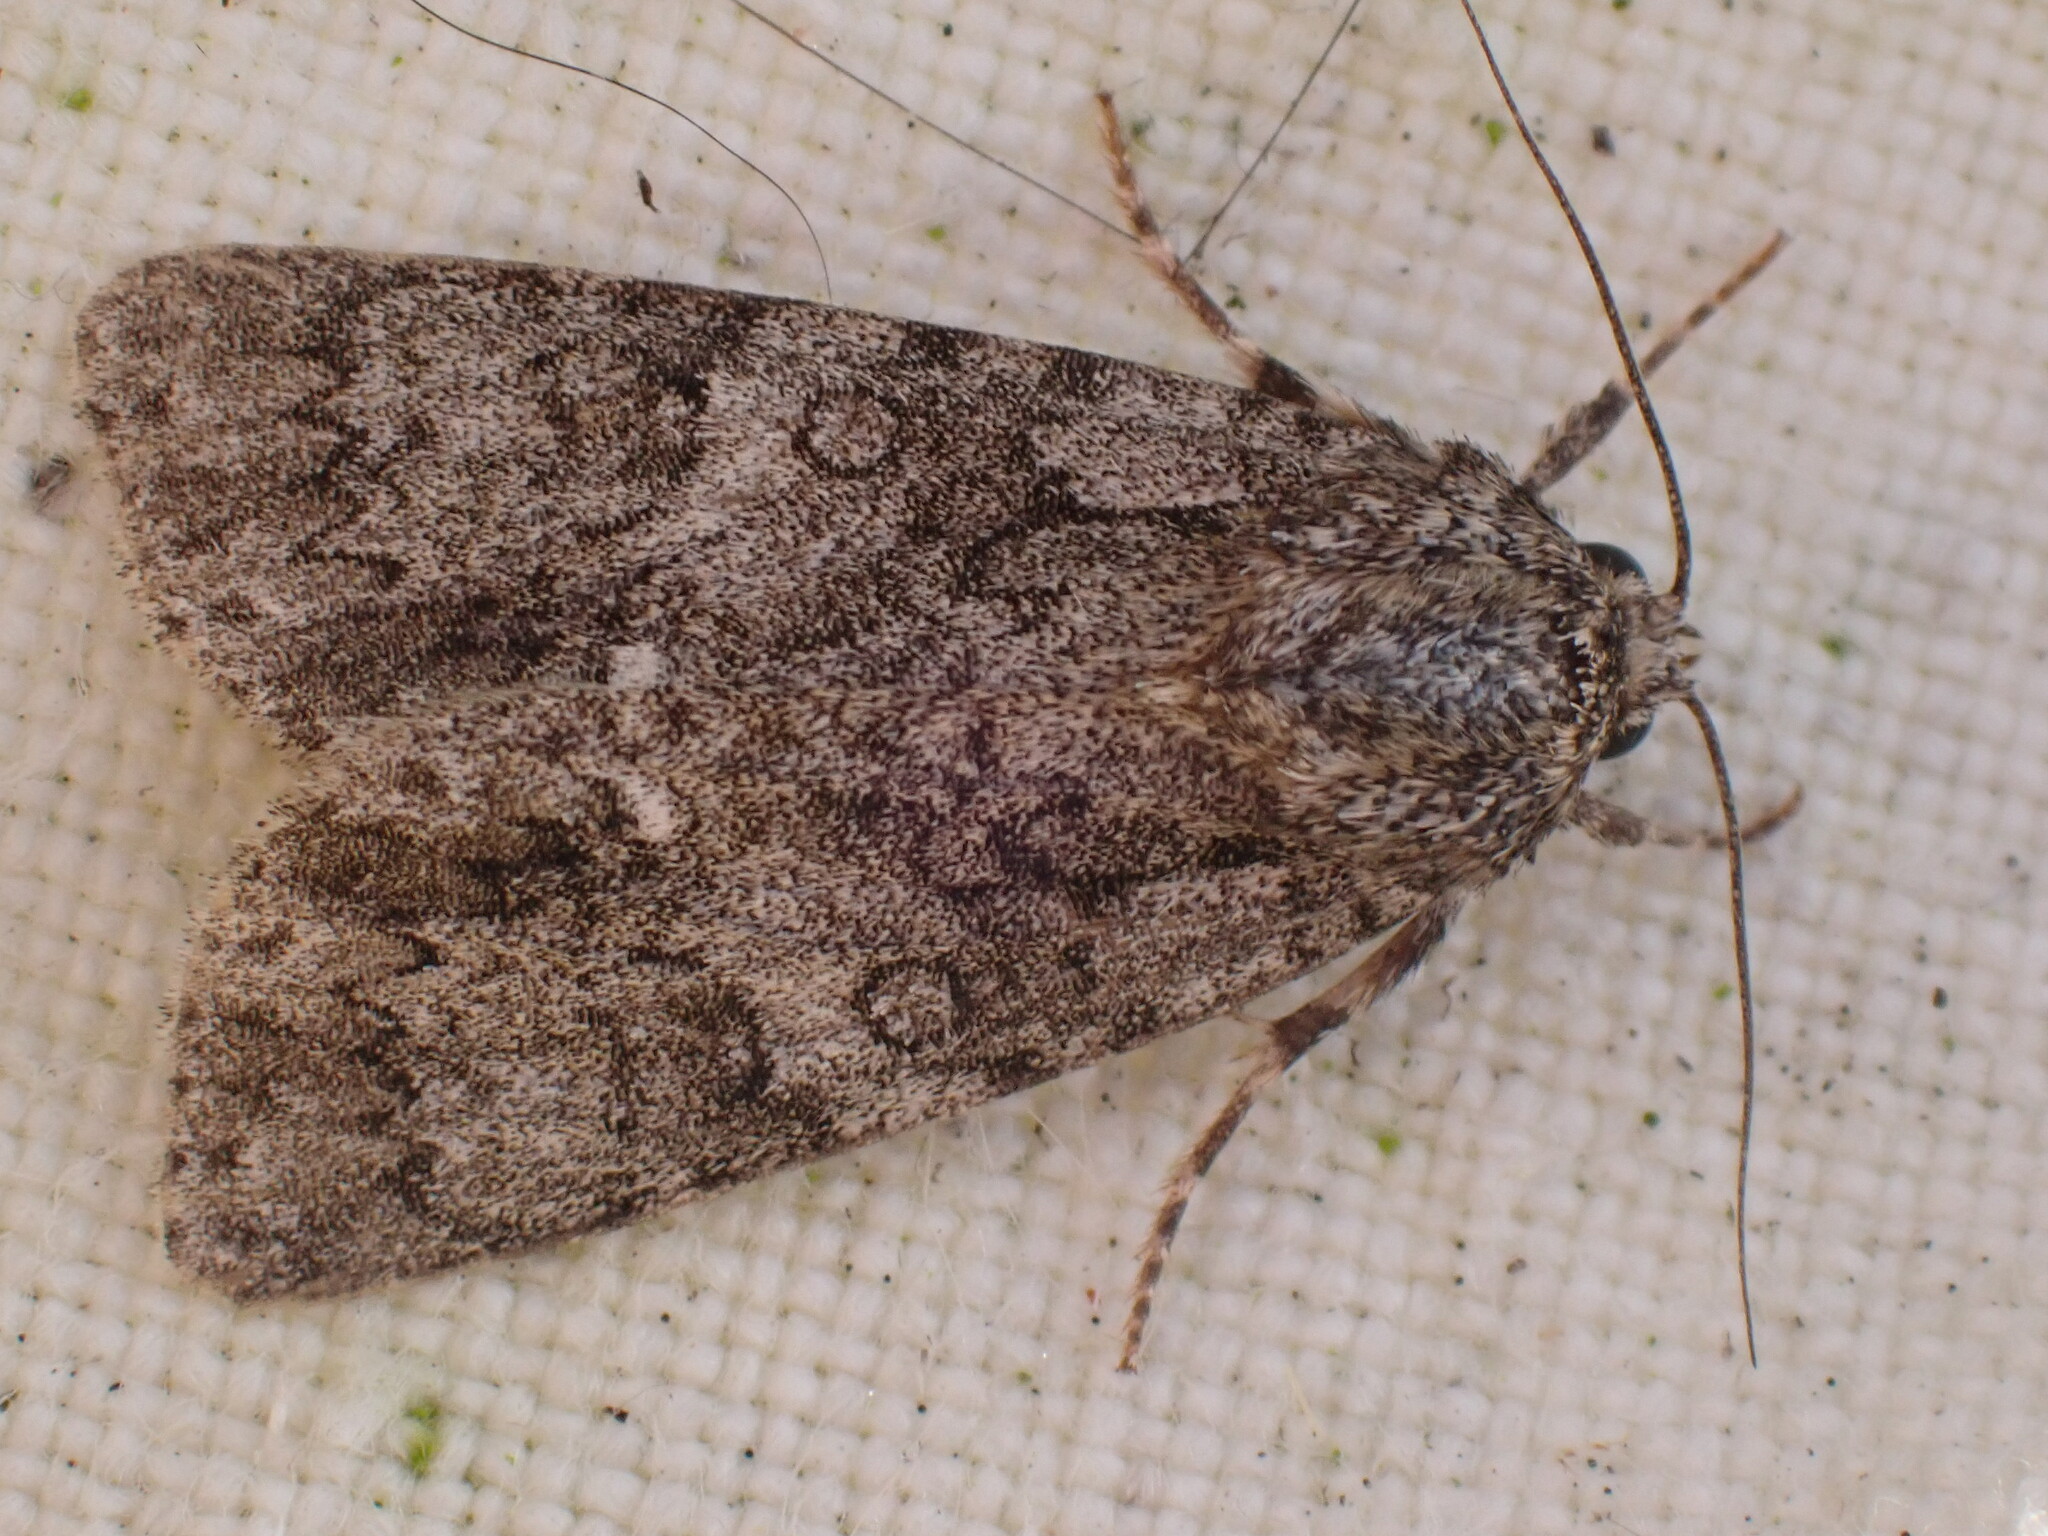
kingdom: Animalia
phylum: Arthropoda
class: Insecta
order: Lepidoptera
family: Noctuidae
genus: Acronicta
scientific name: Acronicta rumicis
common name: Knot grass
